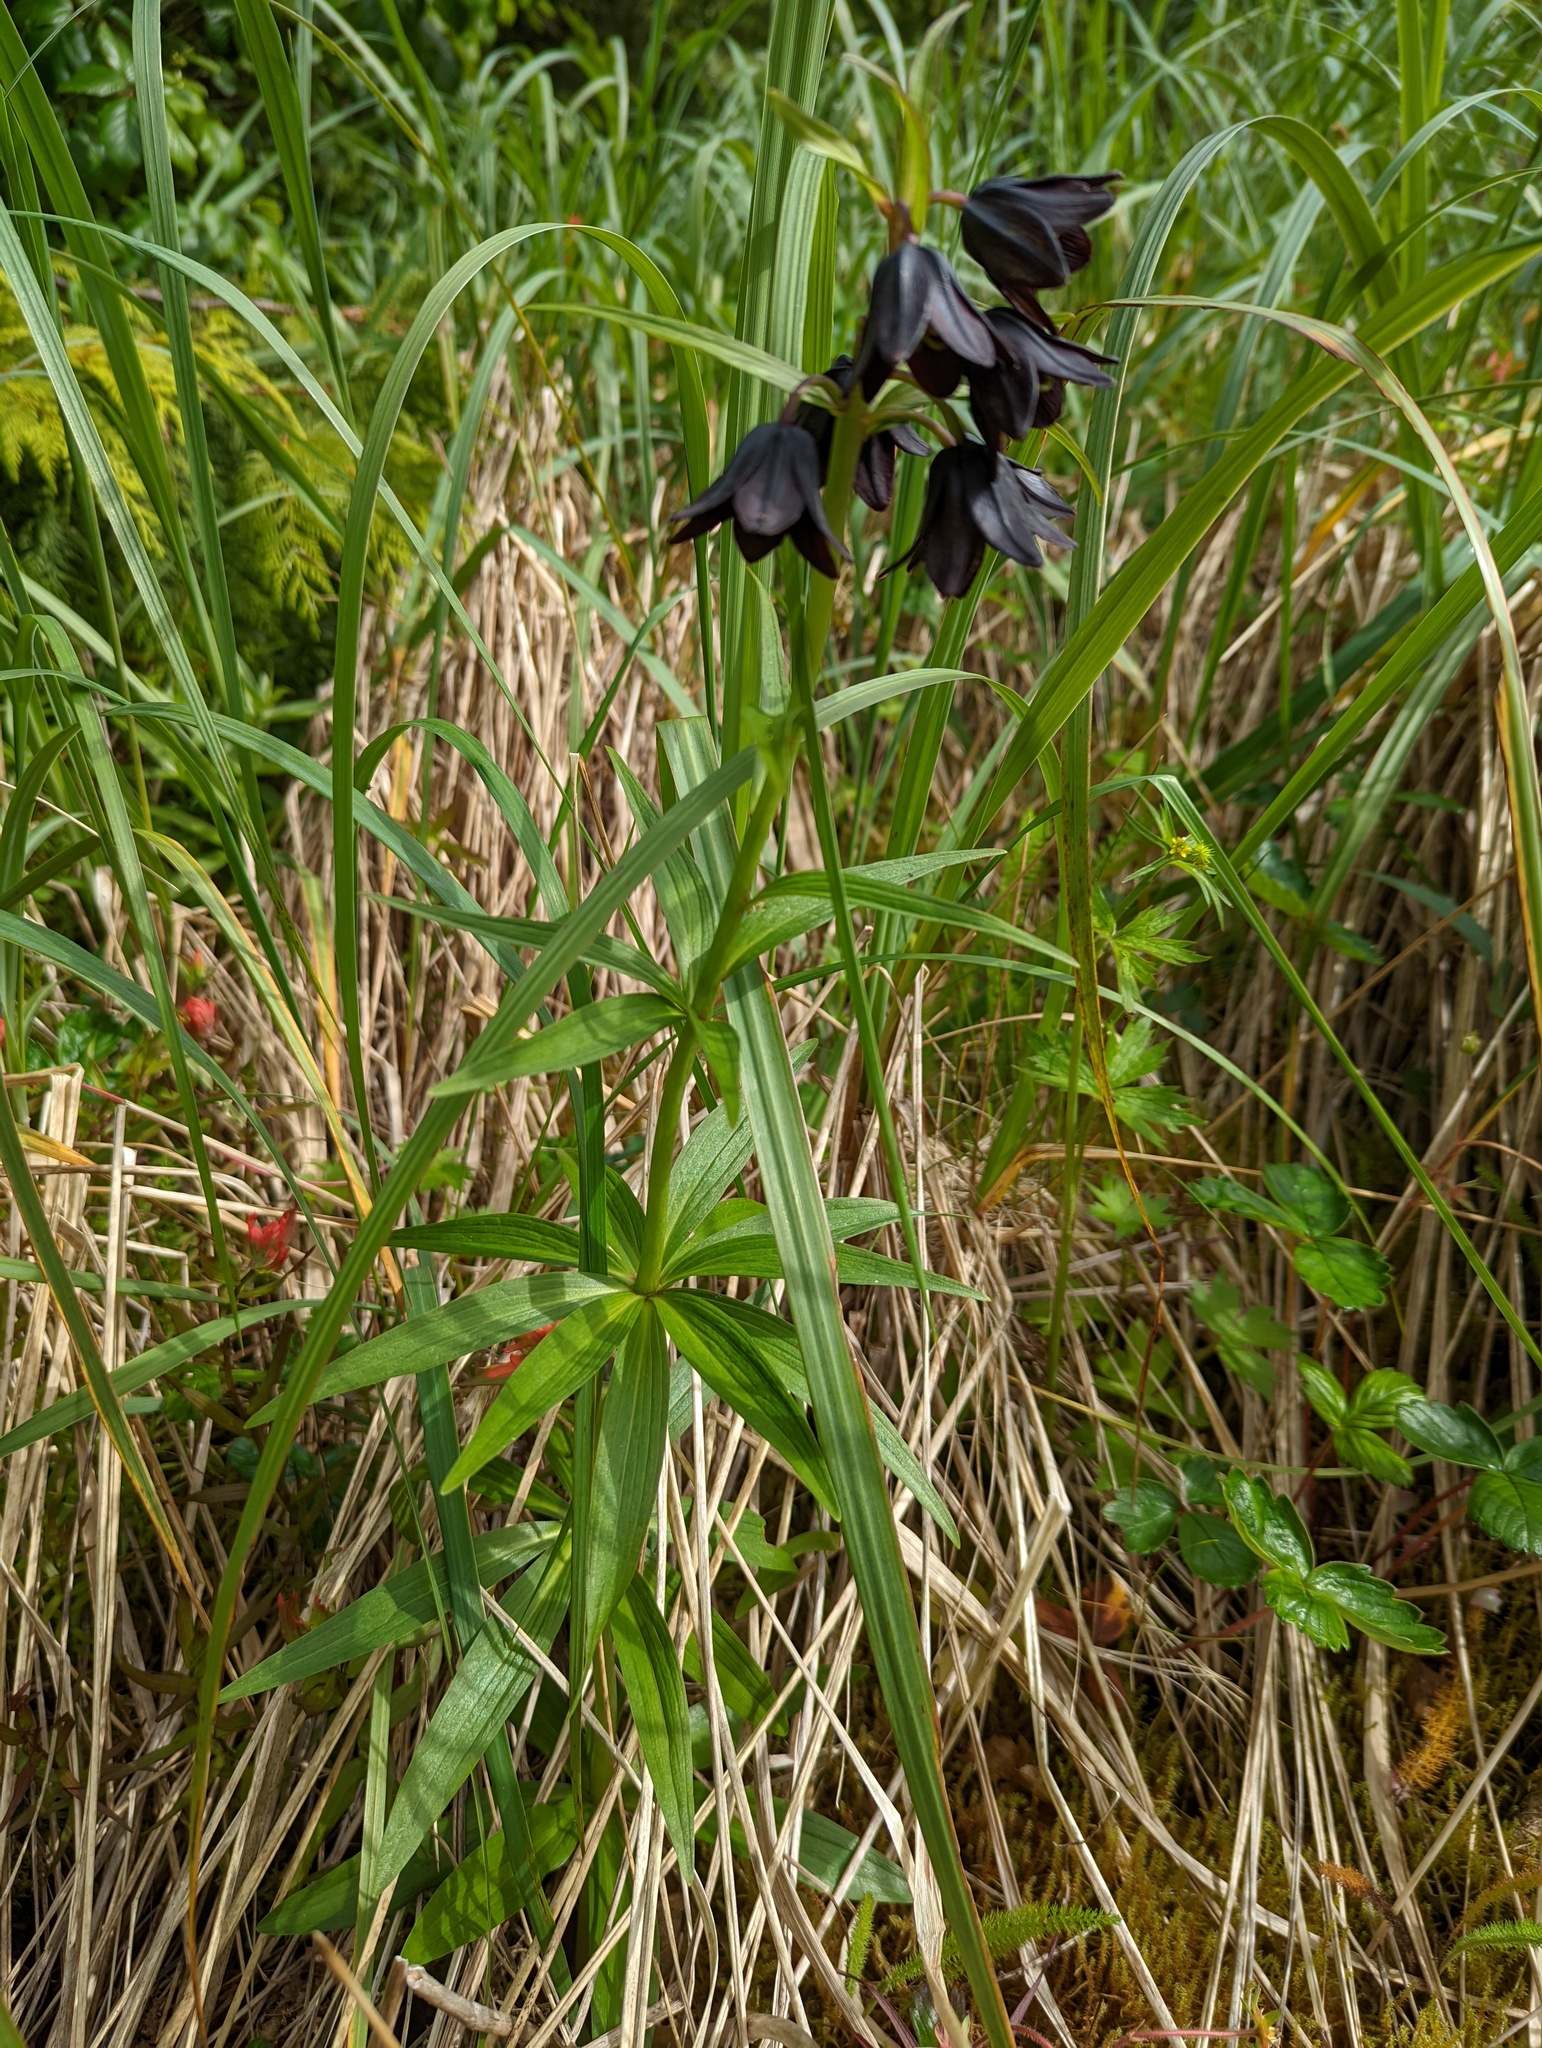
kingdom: Plantae
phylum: Tracheophyta
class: Liliopsida
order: Liliales
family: Liliaceae
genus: Fritillaria
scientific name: Fritillaria camschatcensis
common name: Kamchatka fritillary
